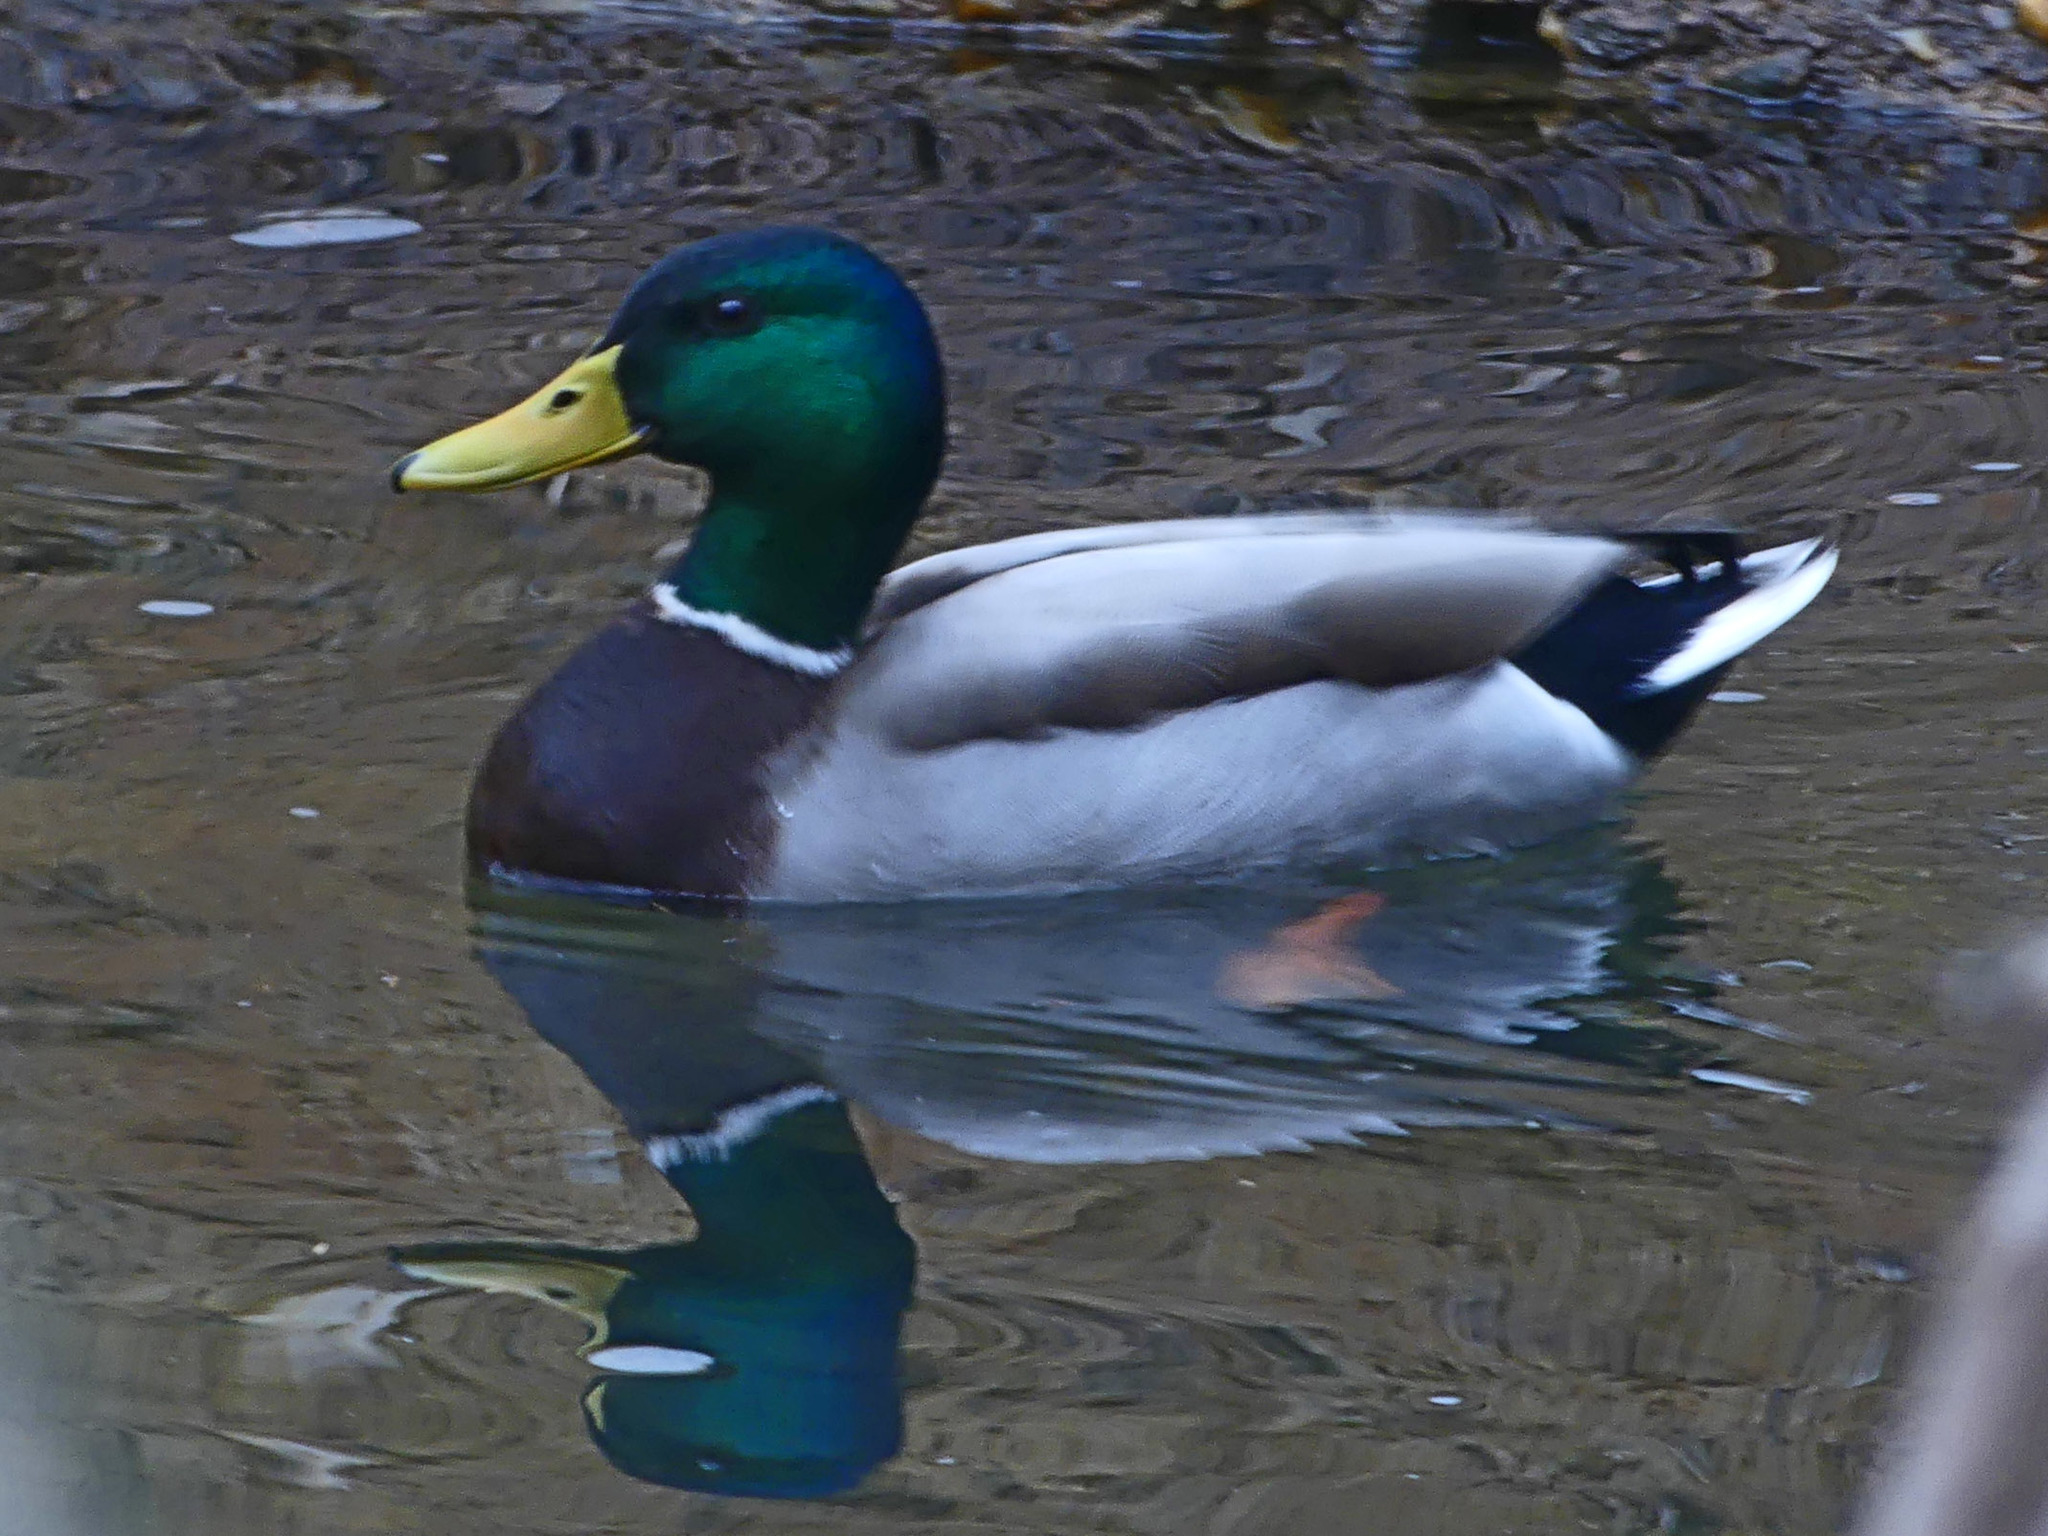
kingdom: Animalia
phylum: Chordata
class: Aves
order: Anseriformes
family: Anatidae
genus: Anas
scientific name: Anas platyrhynchos
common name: Mallard
